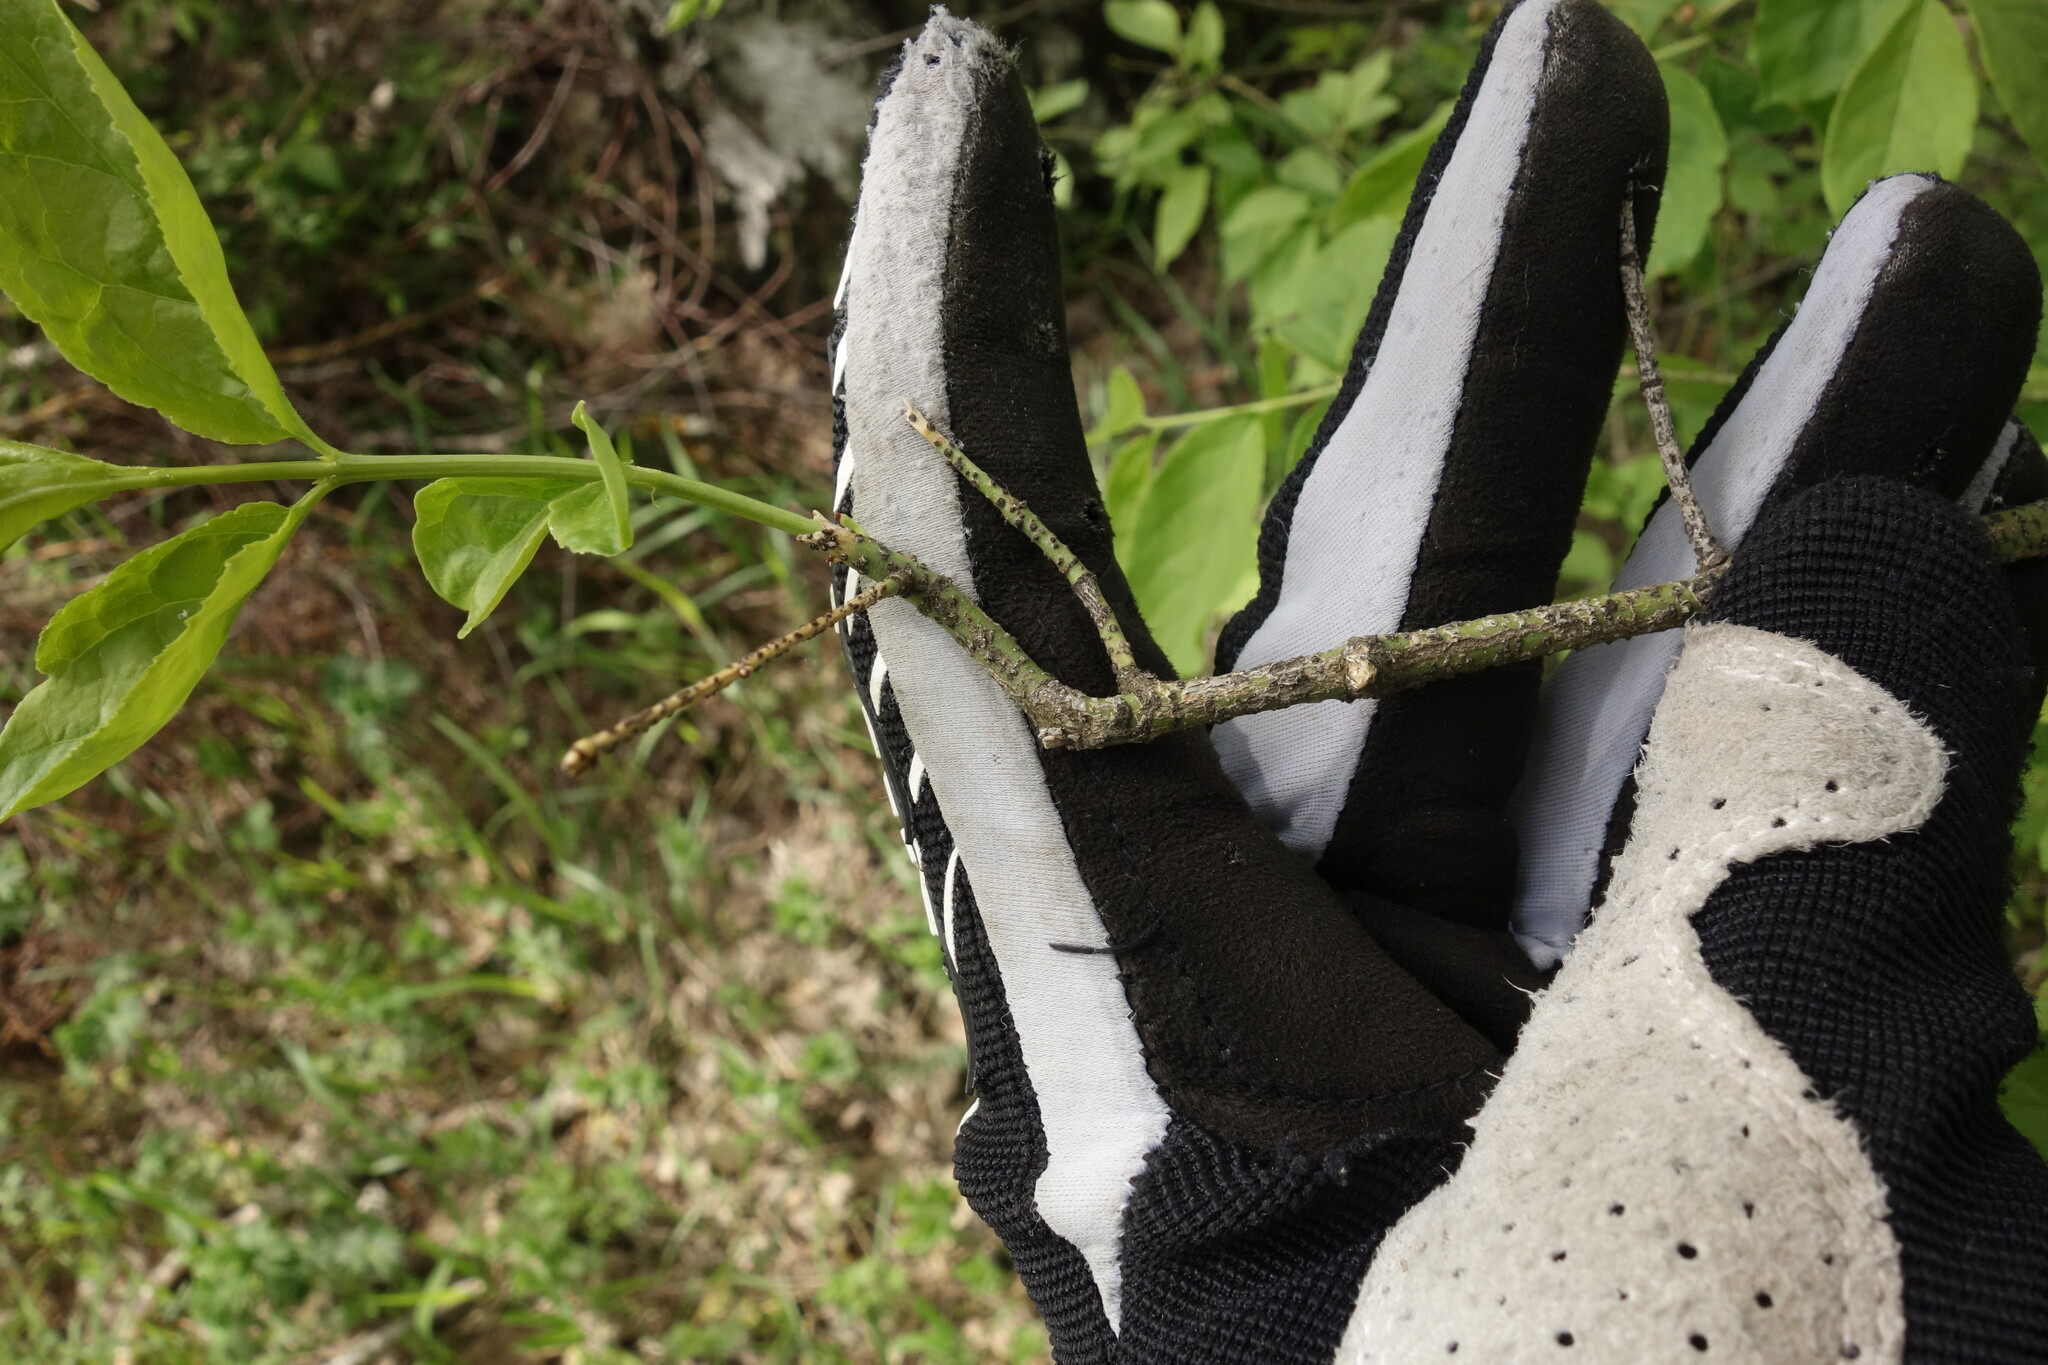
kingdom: Plantae
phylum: Tracheophyta
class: Magnoliopsida
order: Celastrales
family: Celastraceae
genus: Euonymus
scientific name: Euonymus verrucosus
